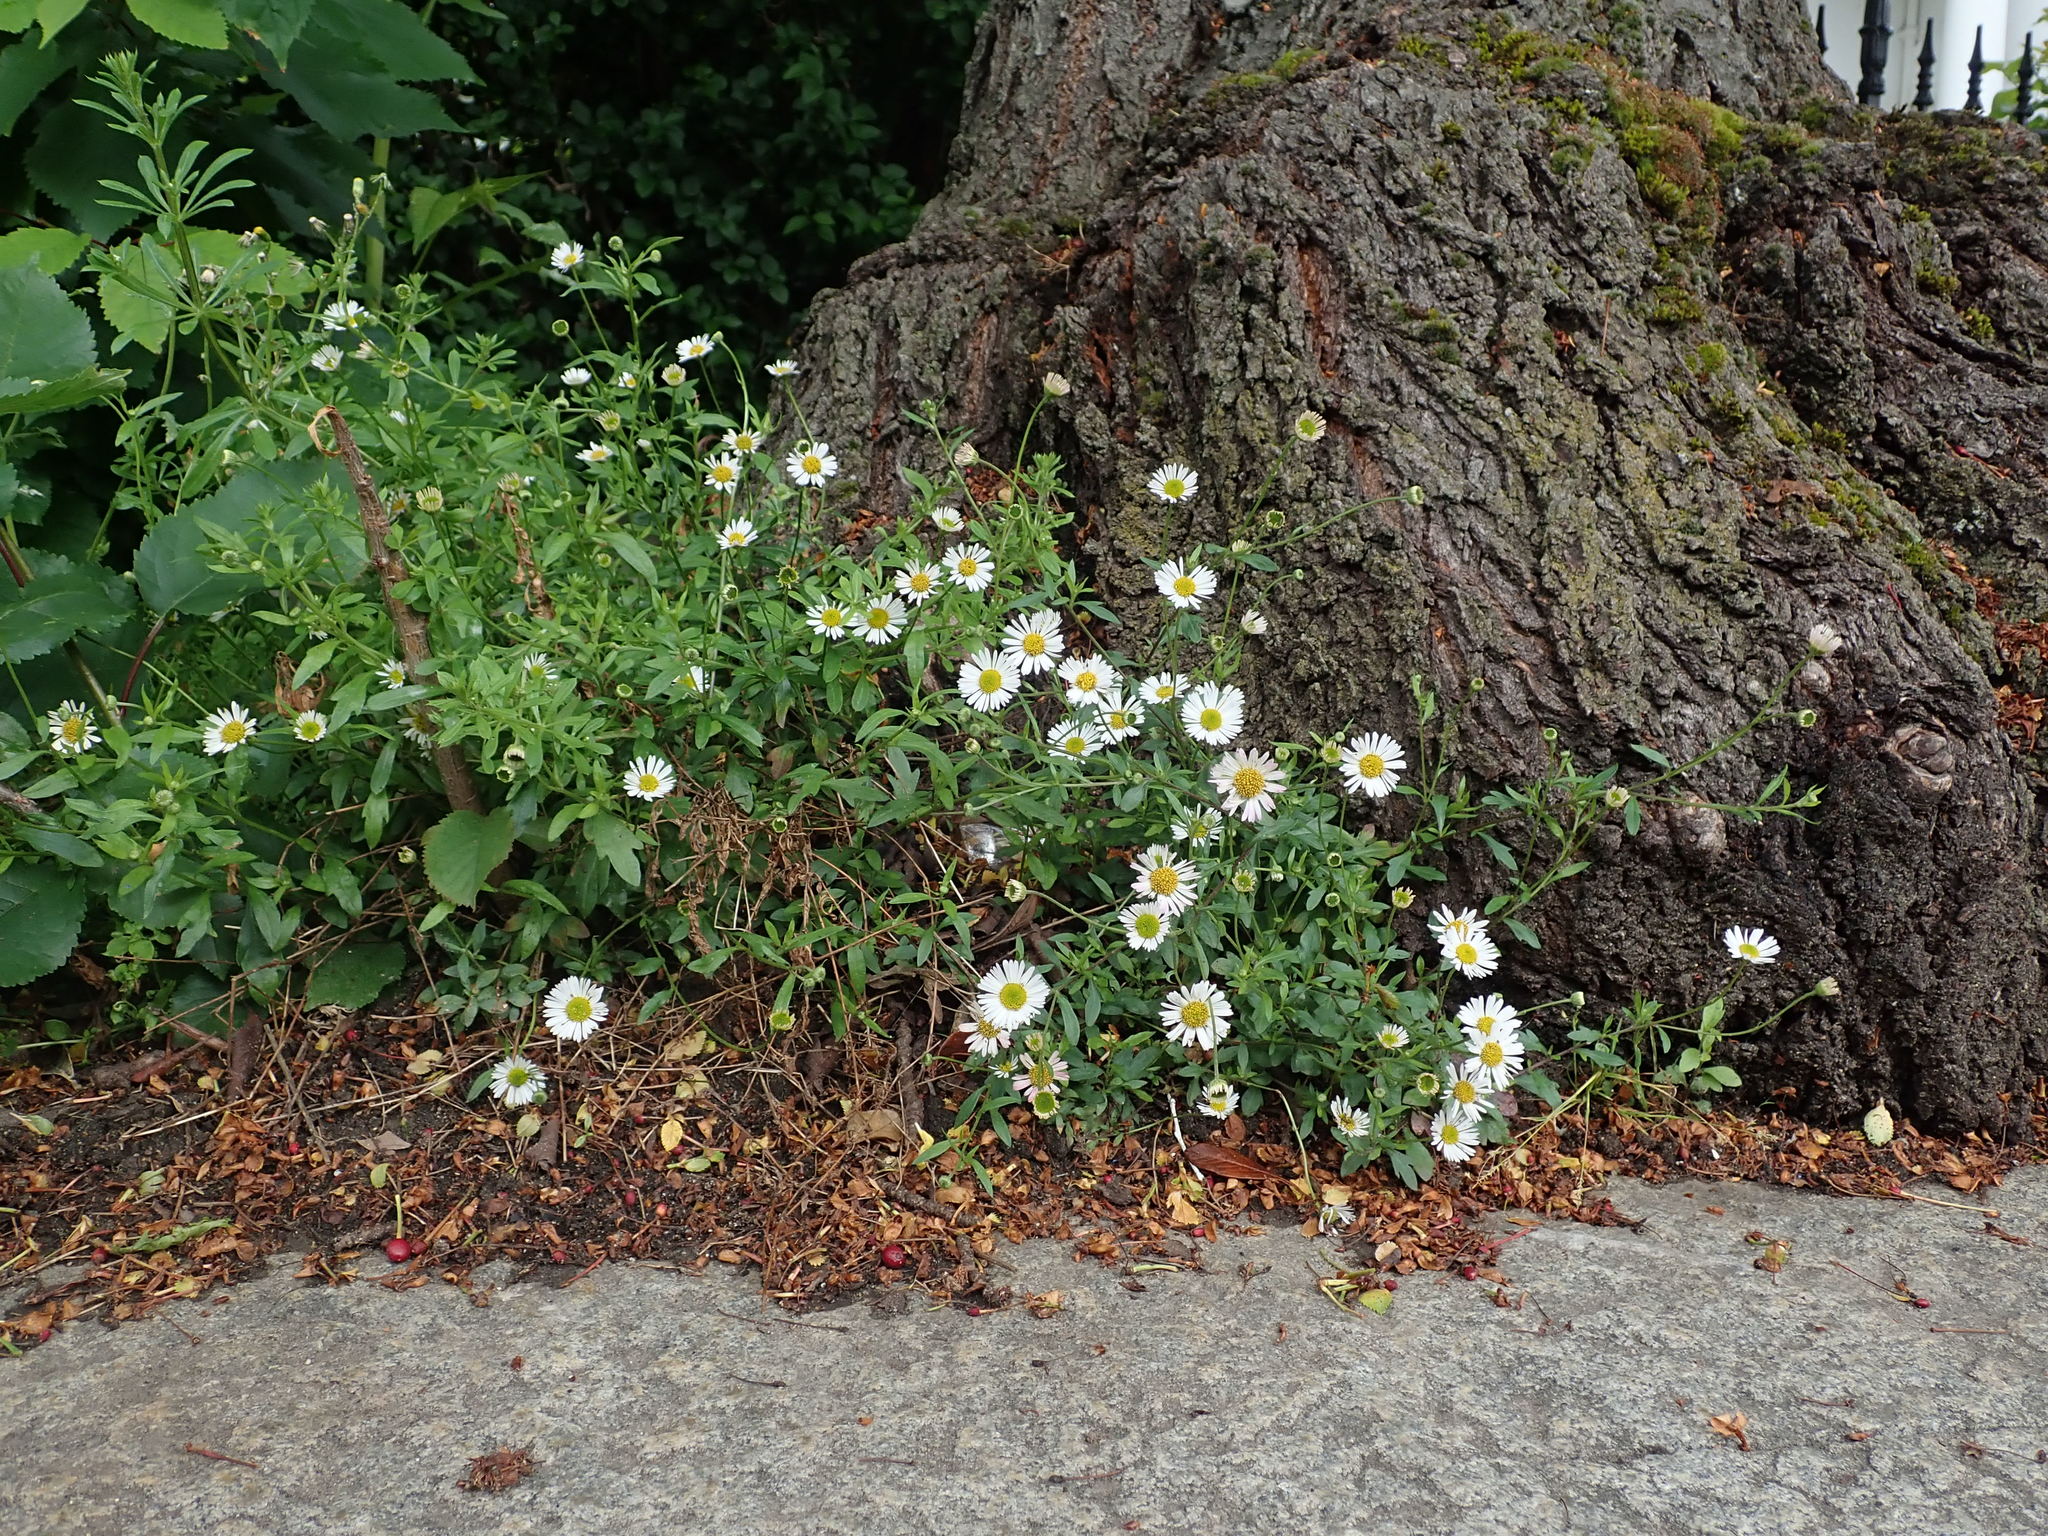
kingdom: Plantae
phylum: Tracheophyta
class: Magnoliopsida
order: Asterales
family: Asteraceae
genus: Erigeron
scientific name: Erigeron karvinskianus
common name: Mexican fleabane
